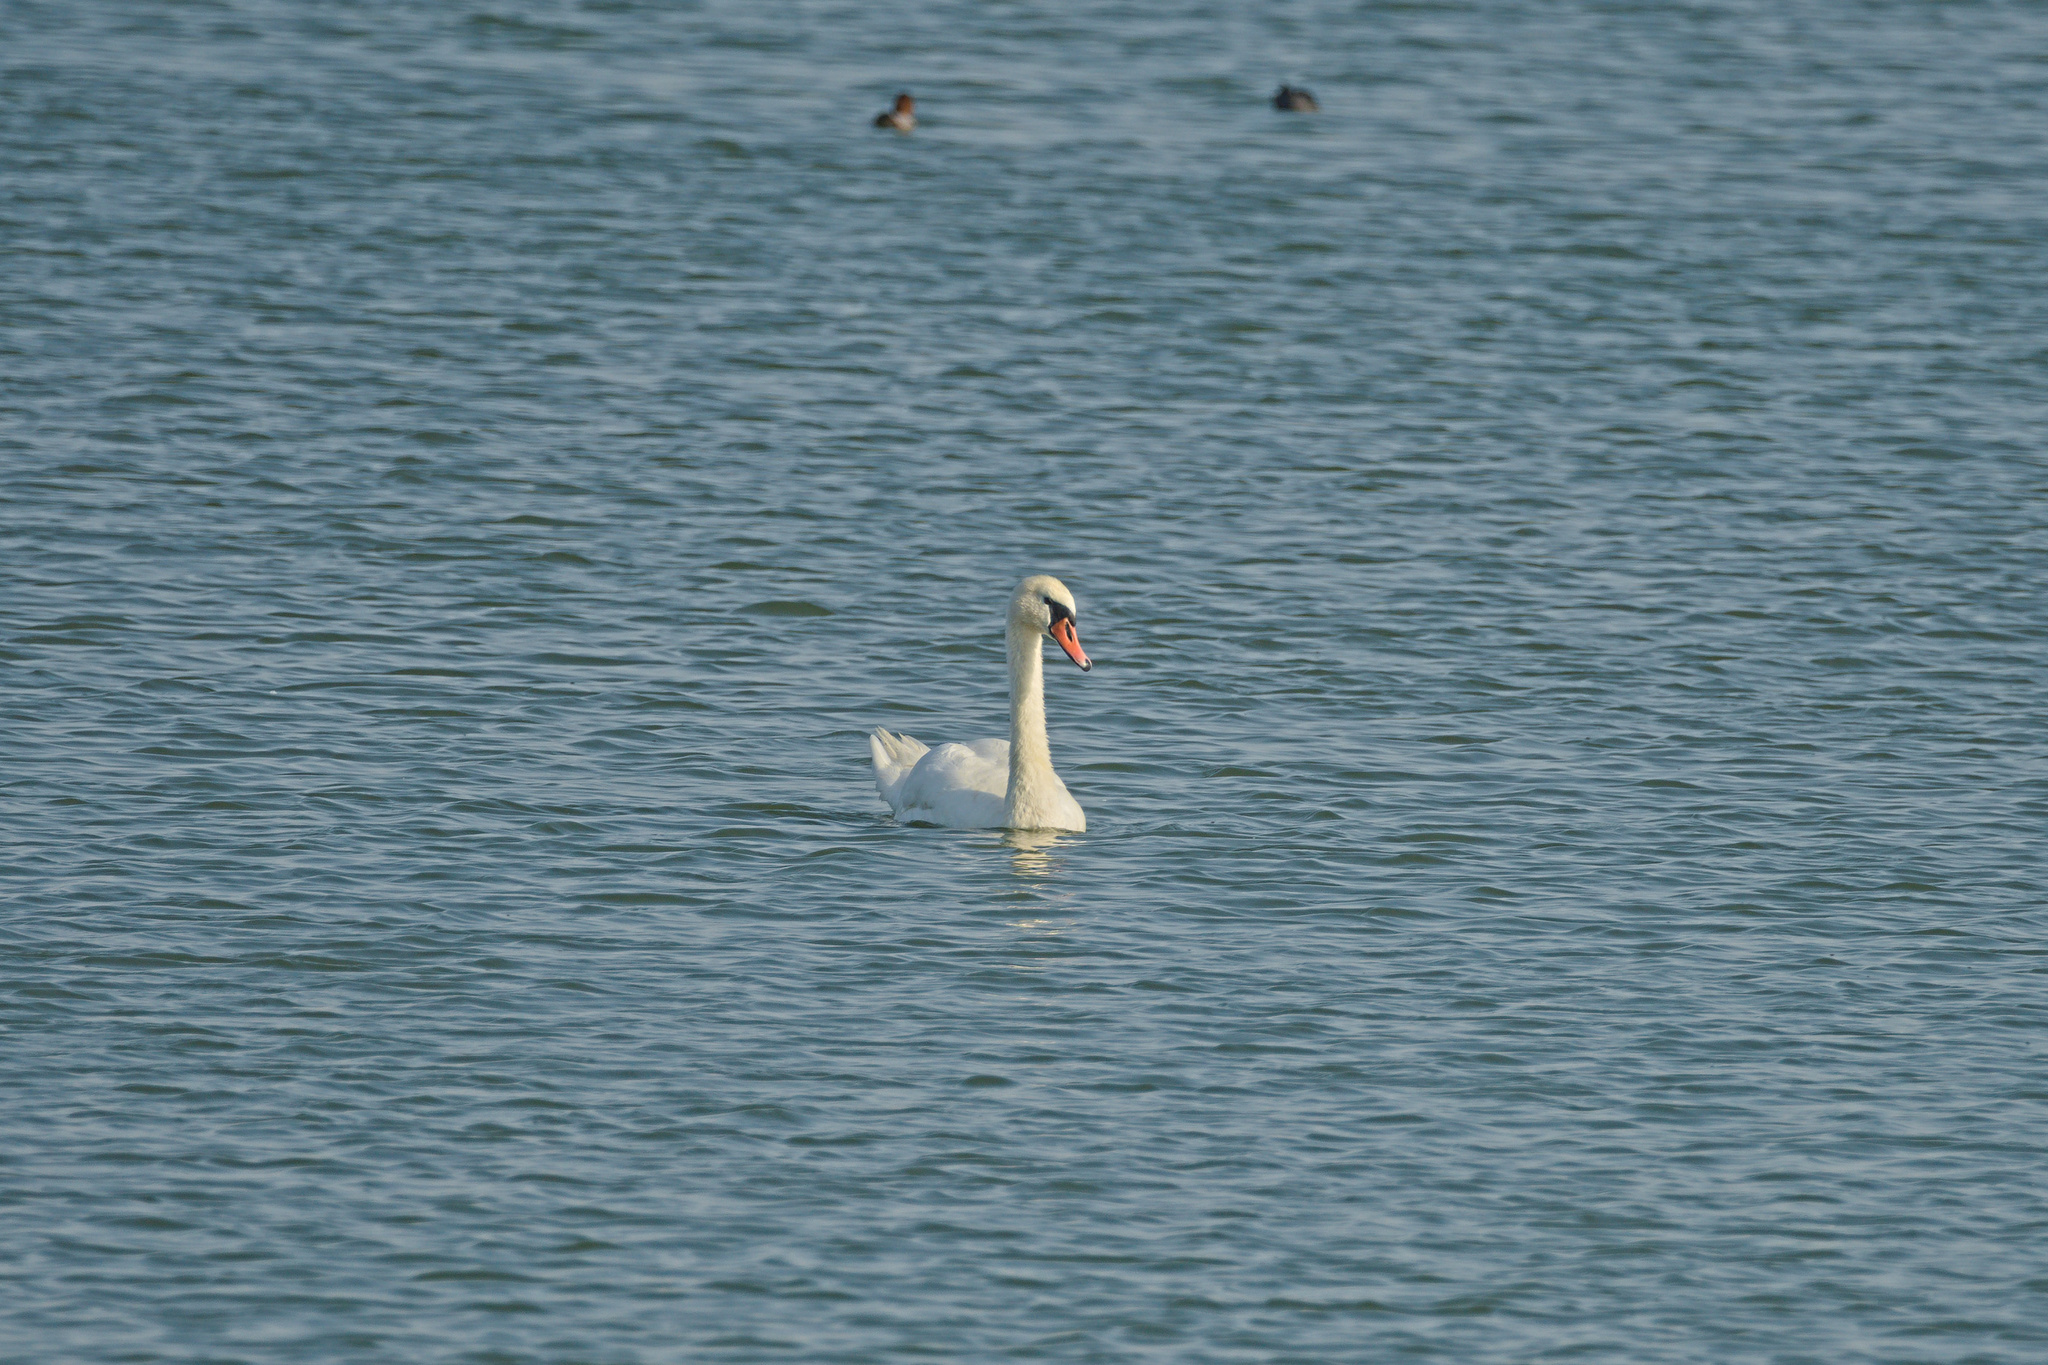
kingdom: Animalia
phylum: Chordata
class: Aves
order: Anseriformes
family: Anatidae
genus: Cygnus
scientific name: Cygnus olor
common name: Mute swan
